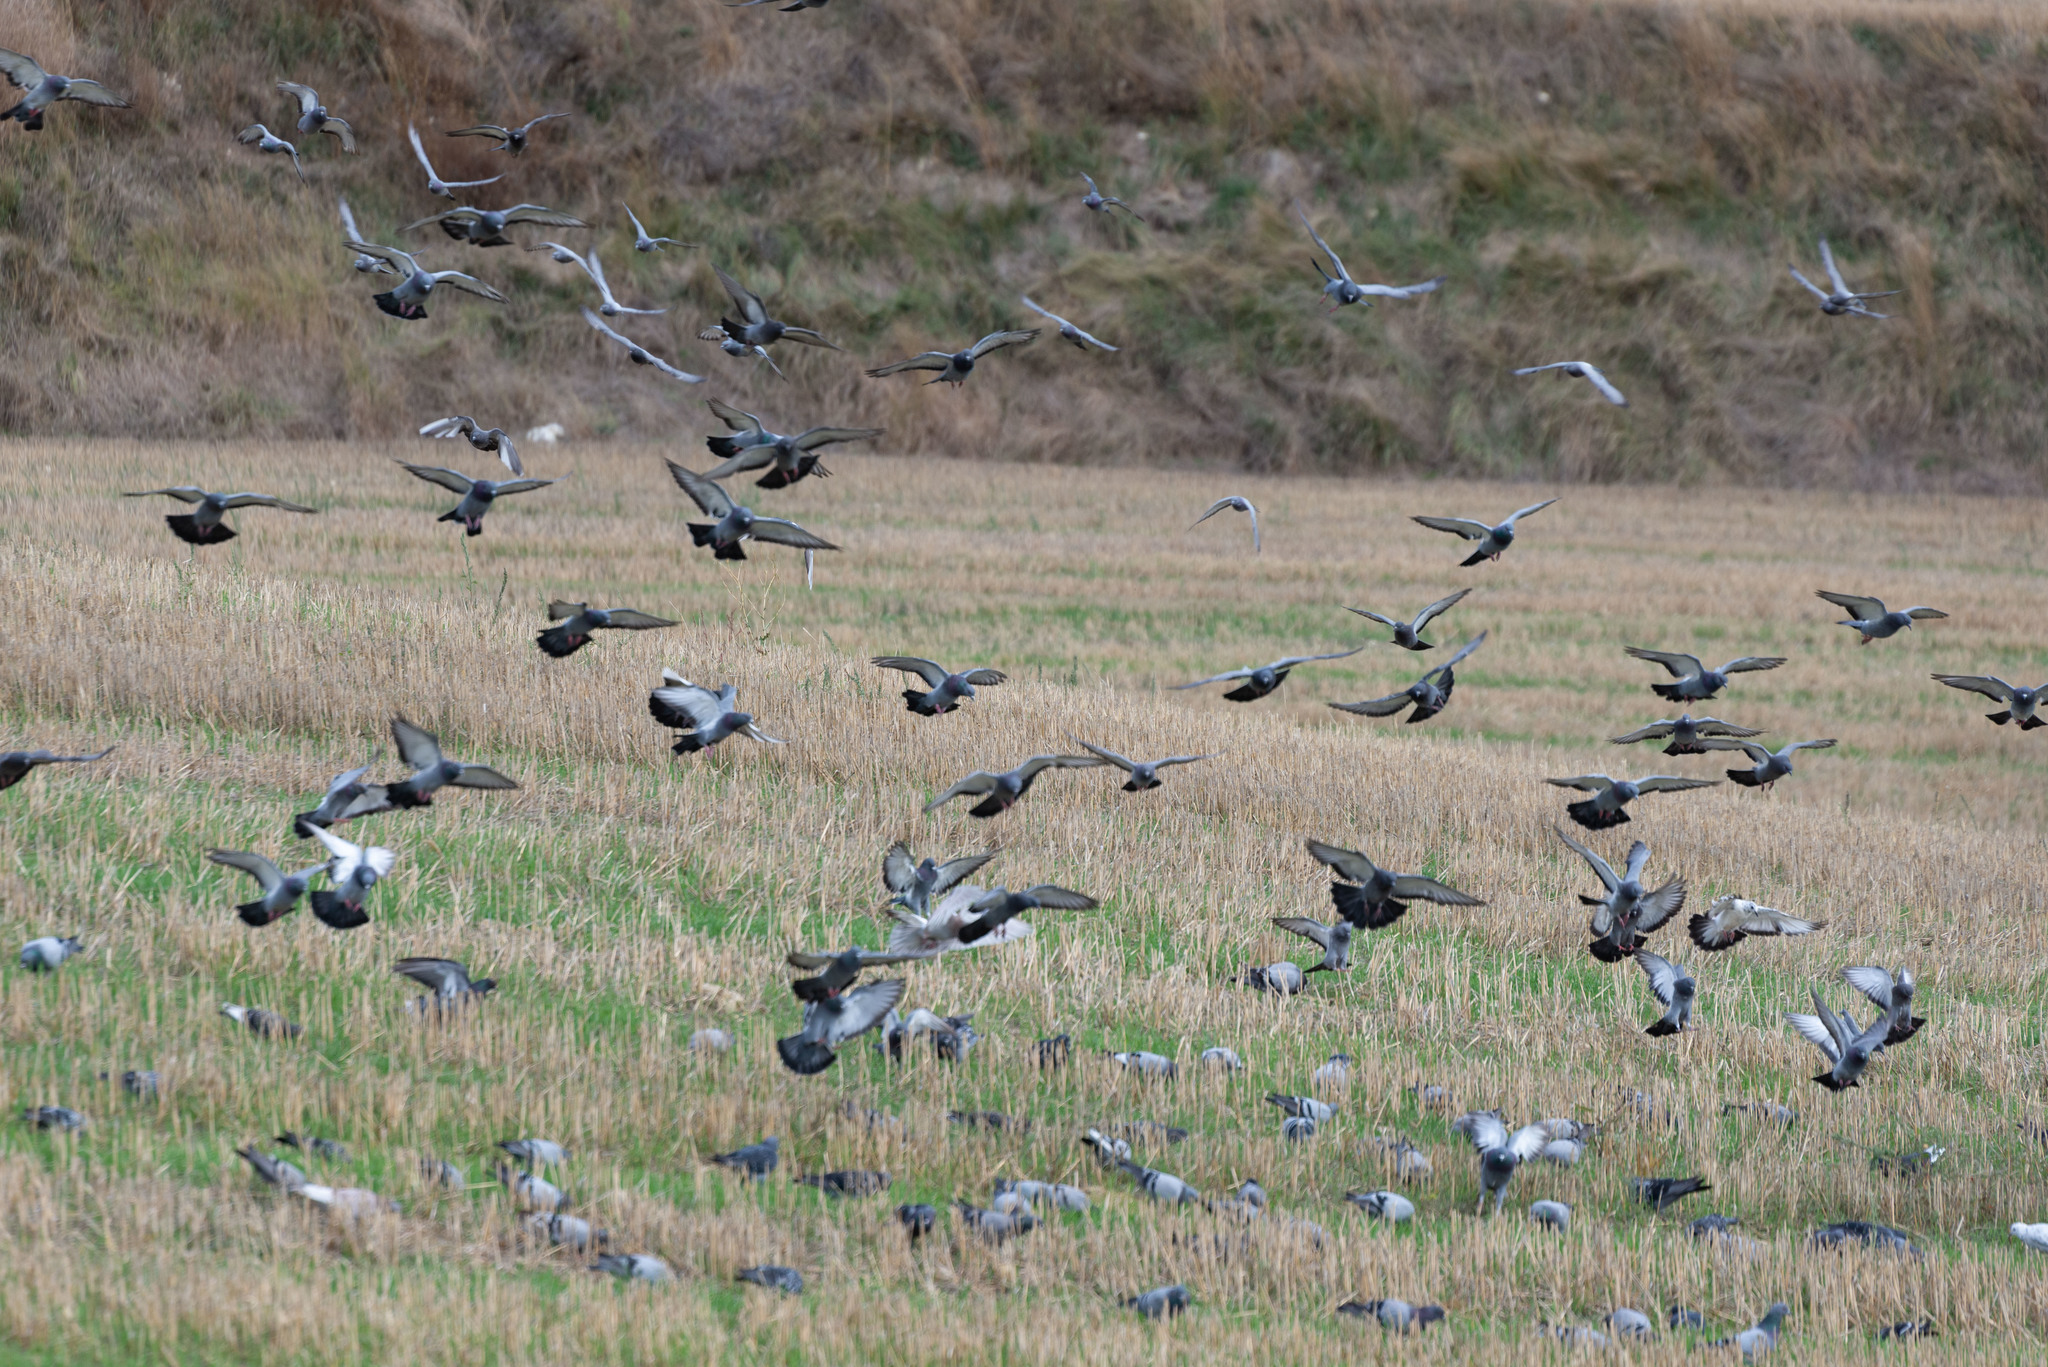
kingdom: Animalia
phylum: Chordata
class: Aves
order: Columbiformes
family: Columbidae
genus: Columba
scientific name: Columba livia
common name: Rock pigeon
